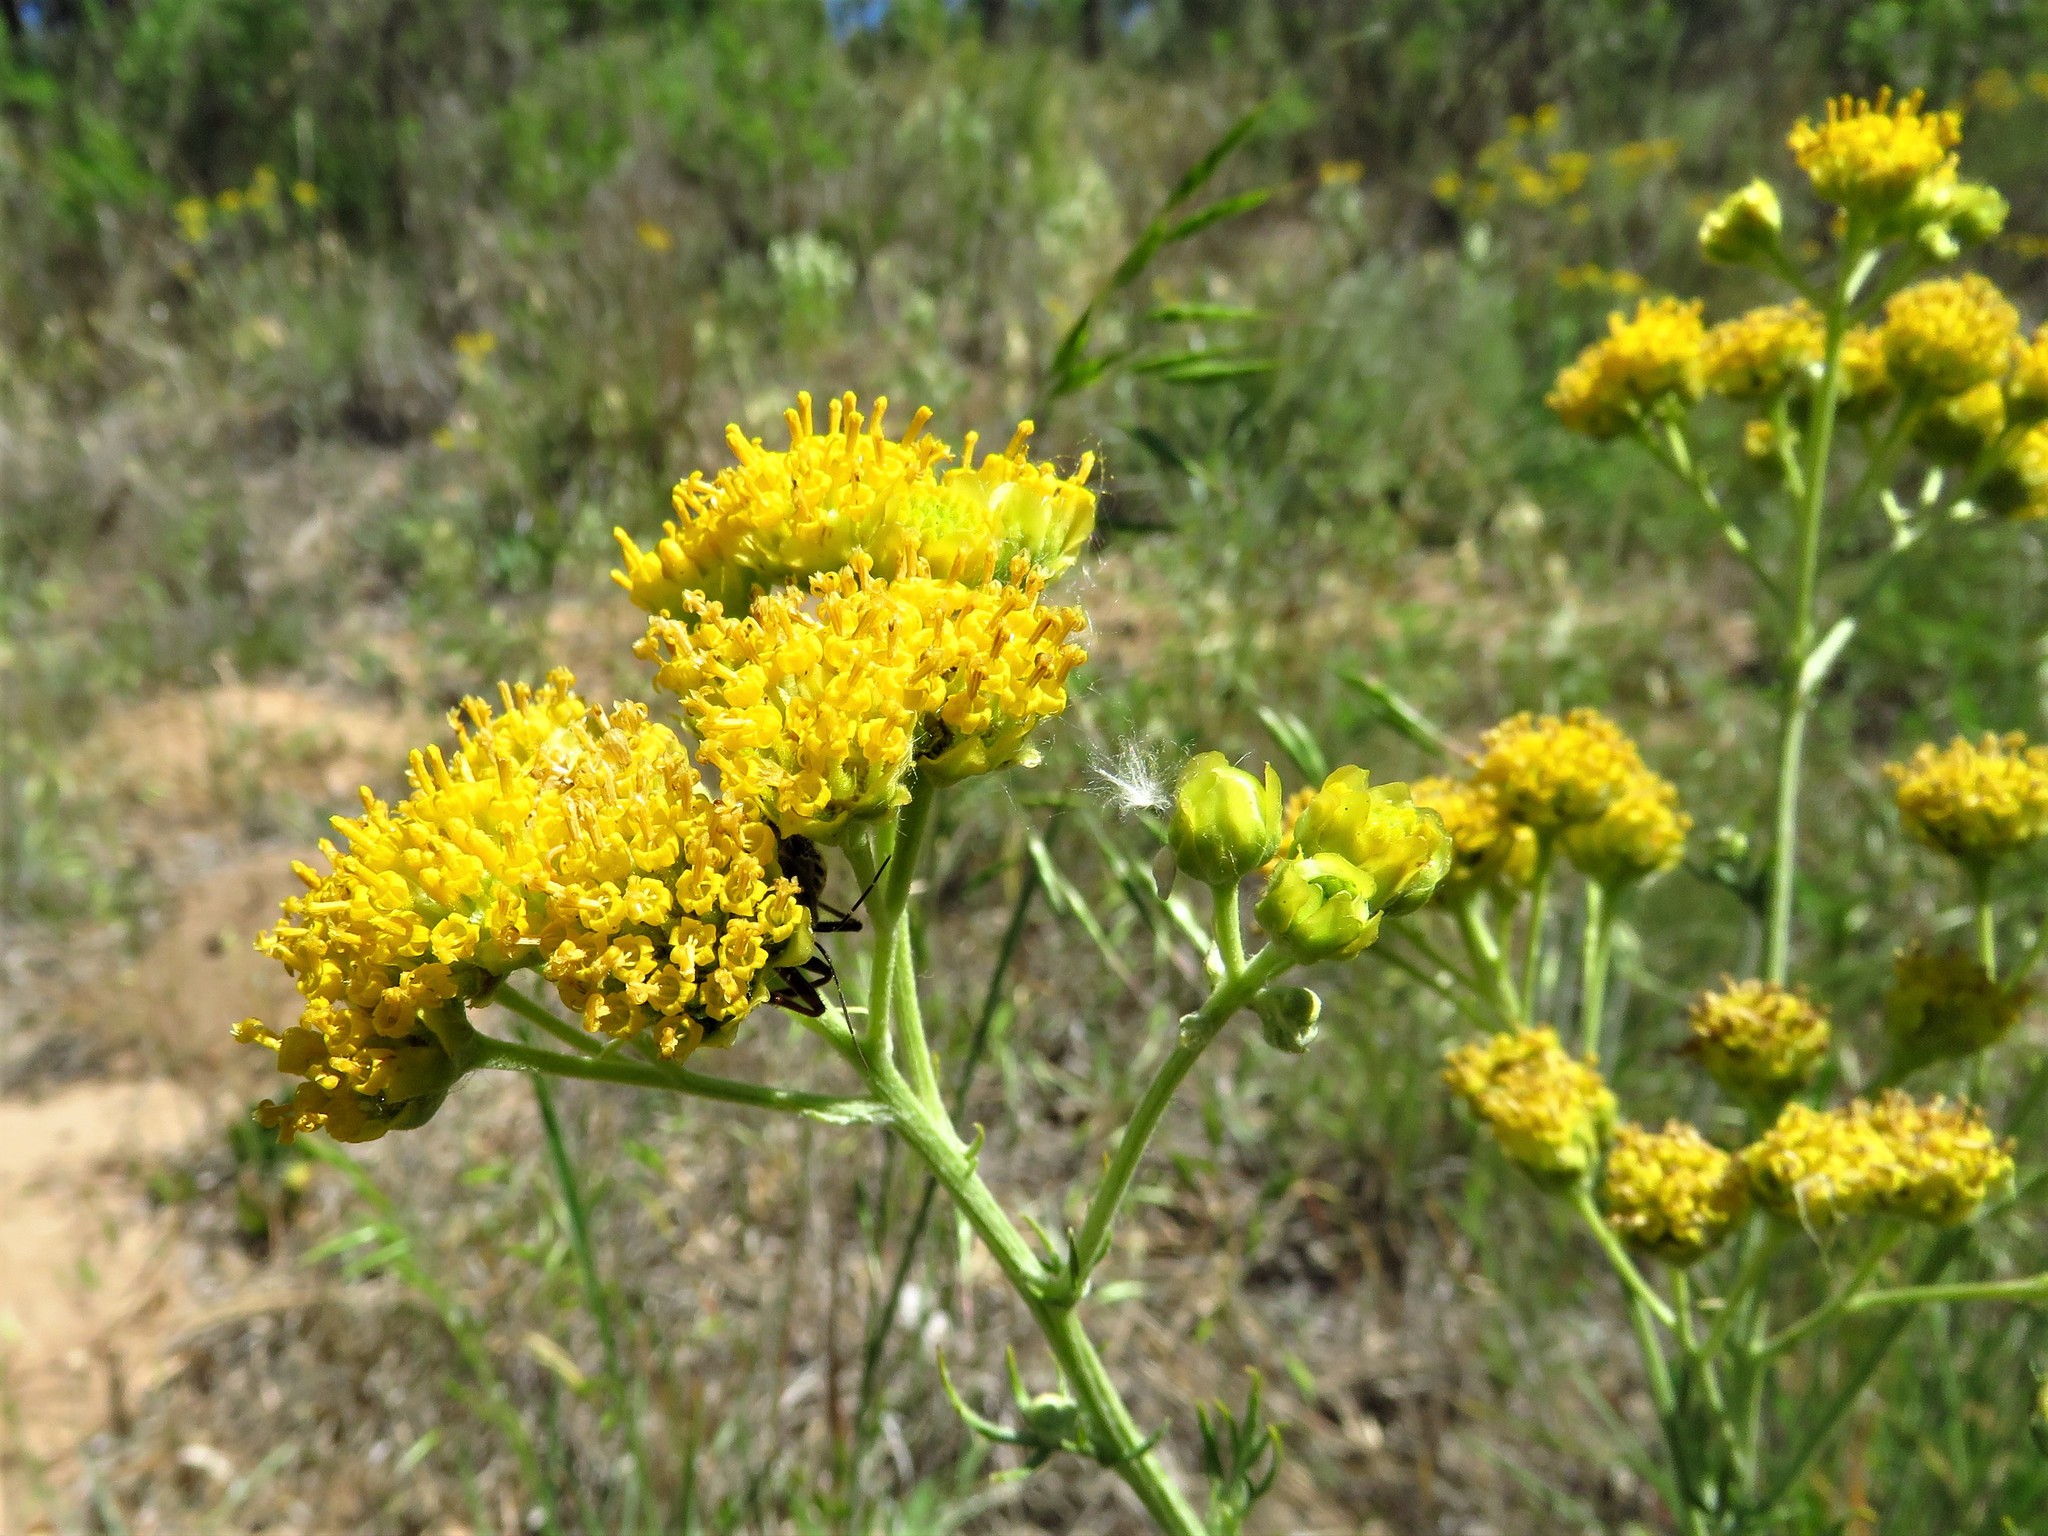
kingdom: Plantae
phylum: Tracheophyta
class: Magnoliopsida
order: Asterales
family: Asteraceae
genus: Hymenopappus
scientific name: Hymenopappus flavescens
